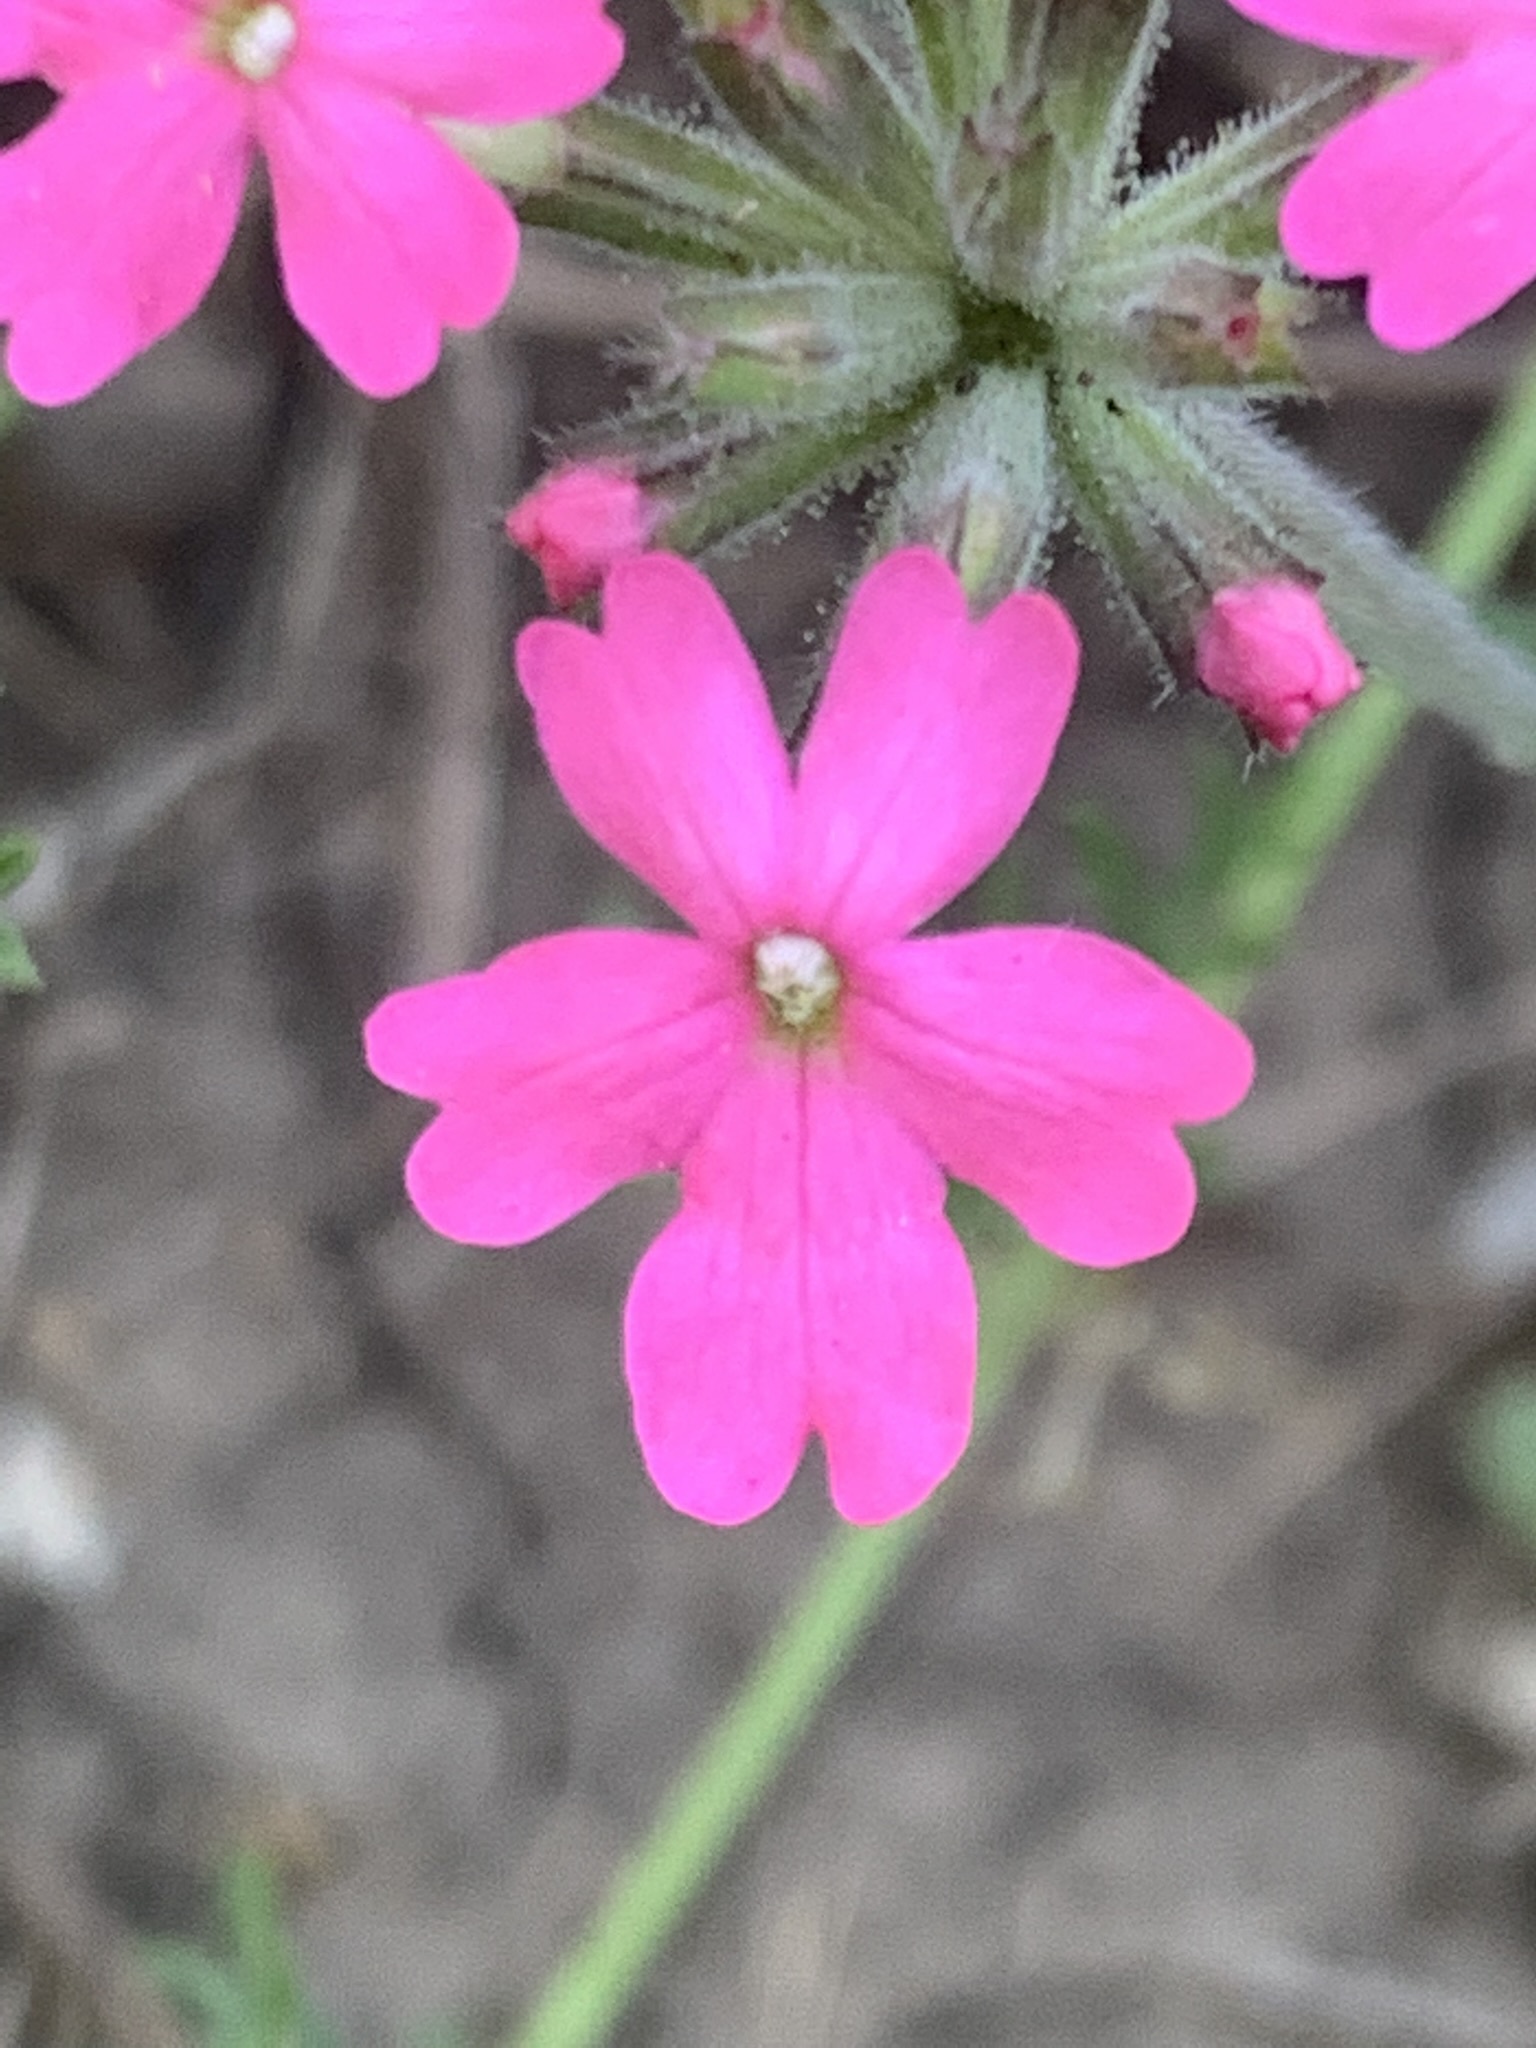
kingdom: Plantae
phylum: Tracheophyta
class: Magnoliopsida
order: Lamiales
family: Verbenaceae
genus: Verbena
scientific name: Verbena tweedieana
